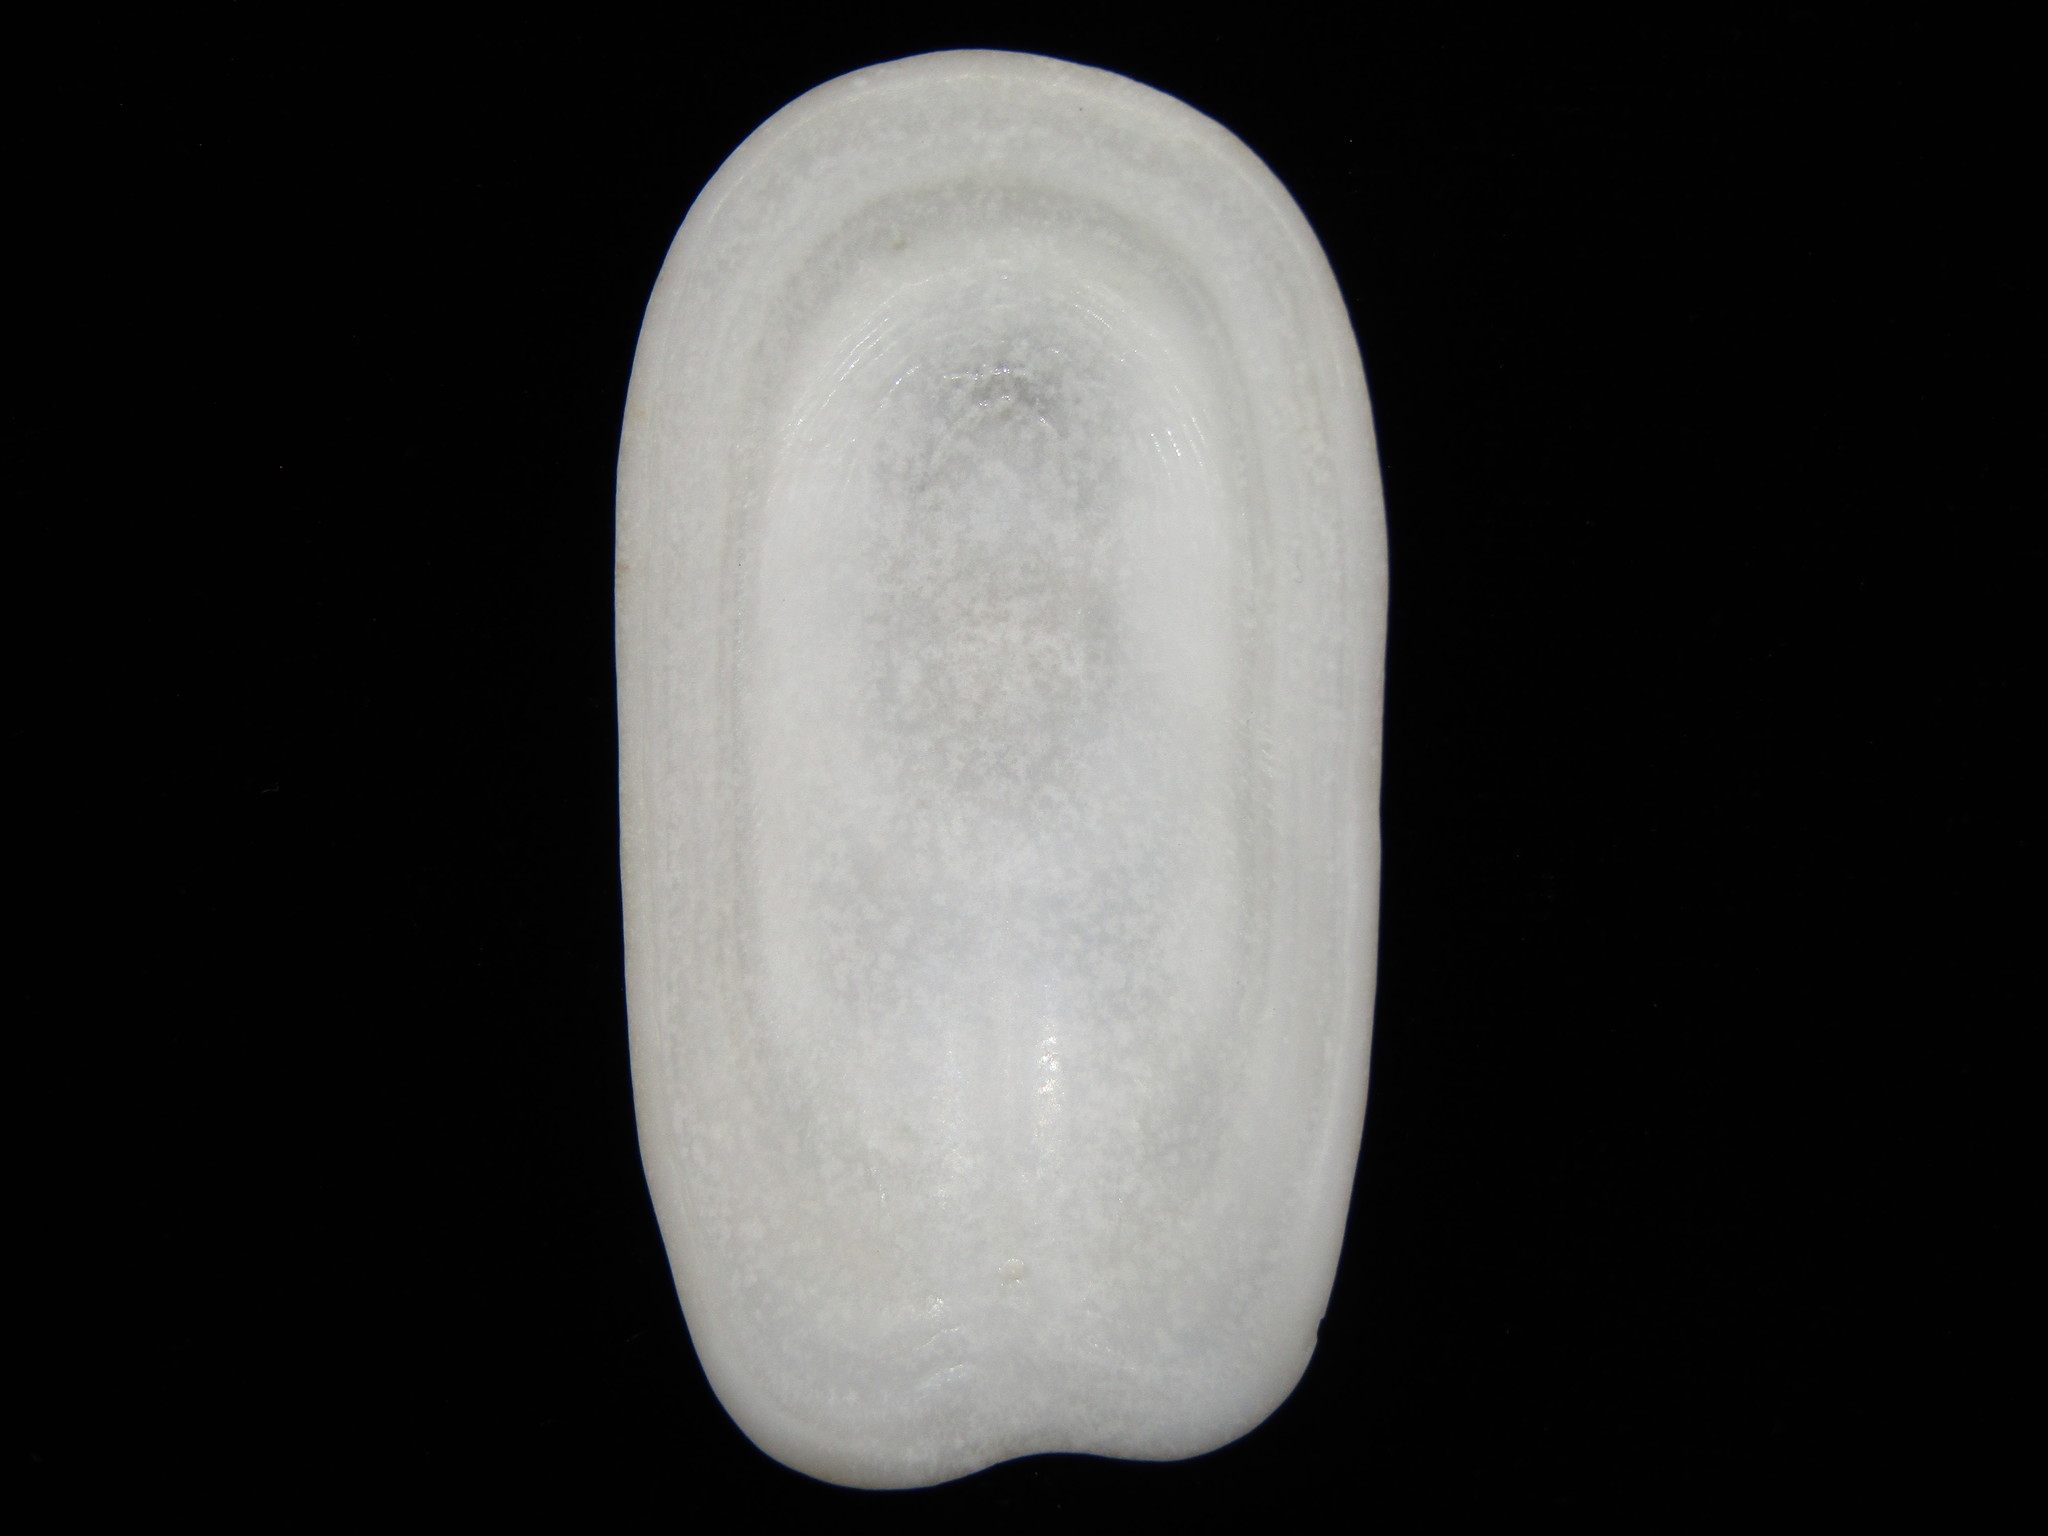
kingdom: Animalia
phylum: Mollusca
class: Gastropoda
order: Lepetellida
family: Fissurellidae
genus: Scutus
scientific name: Scutus breviculus
